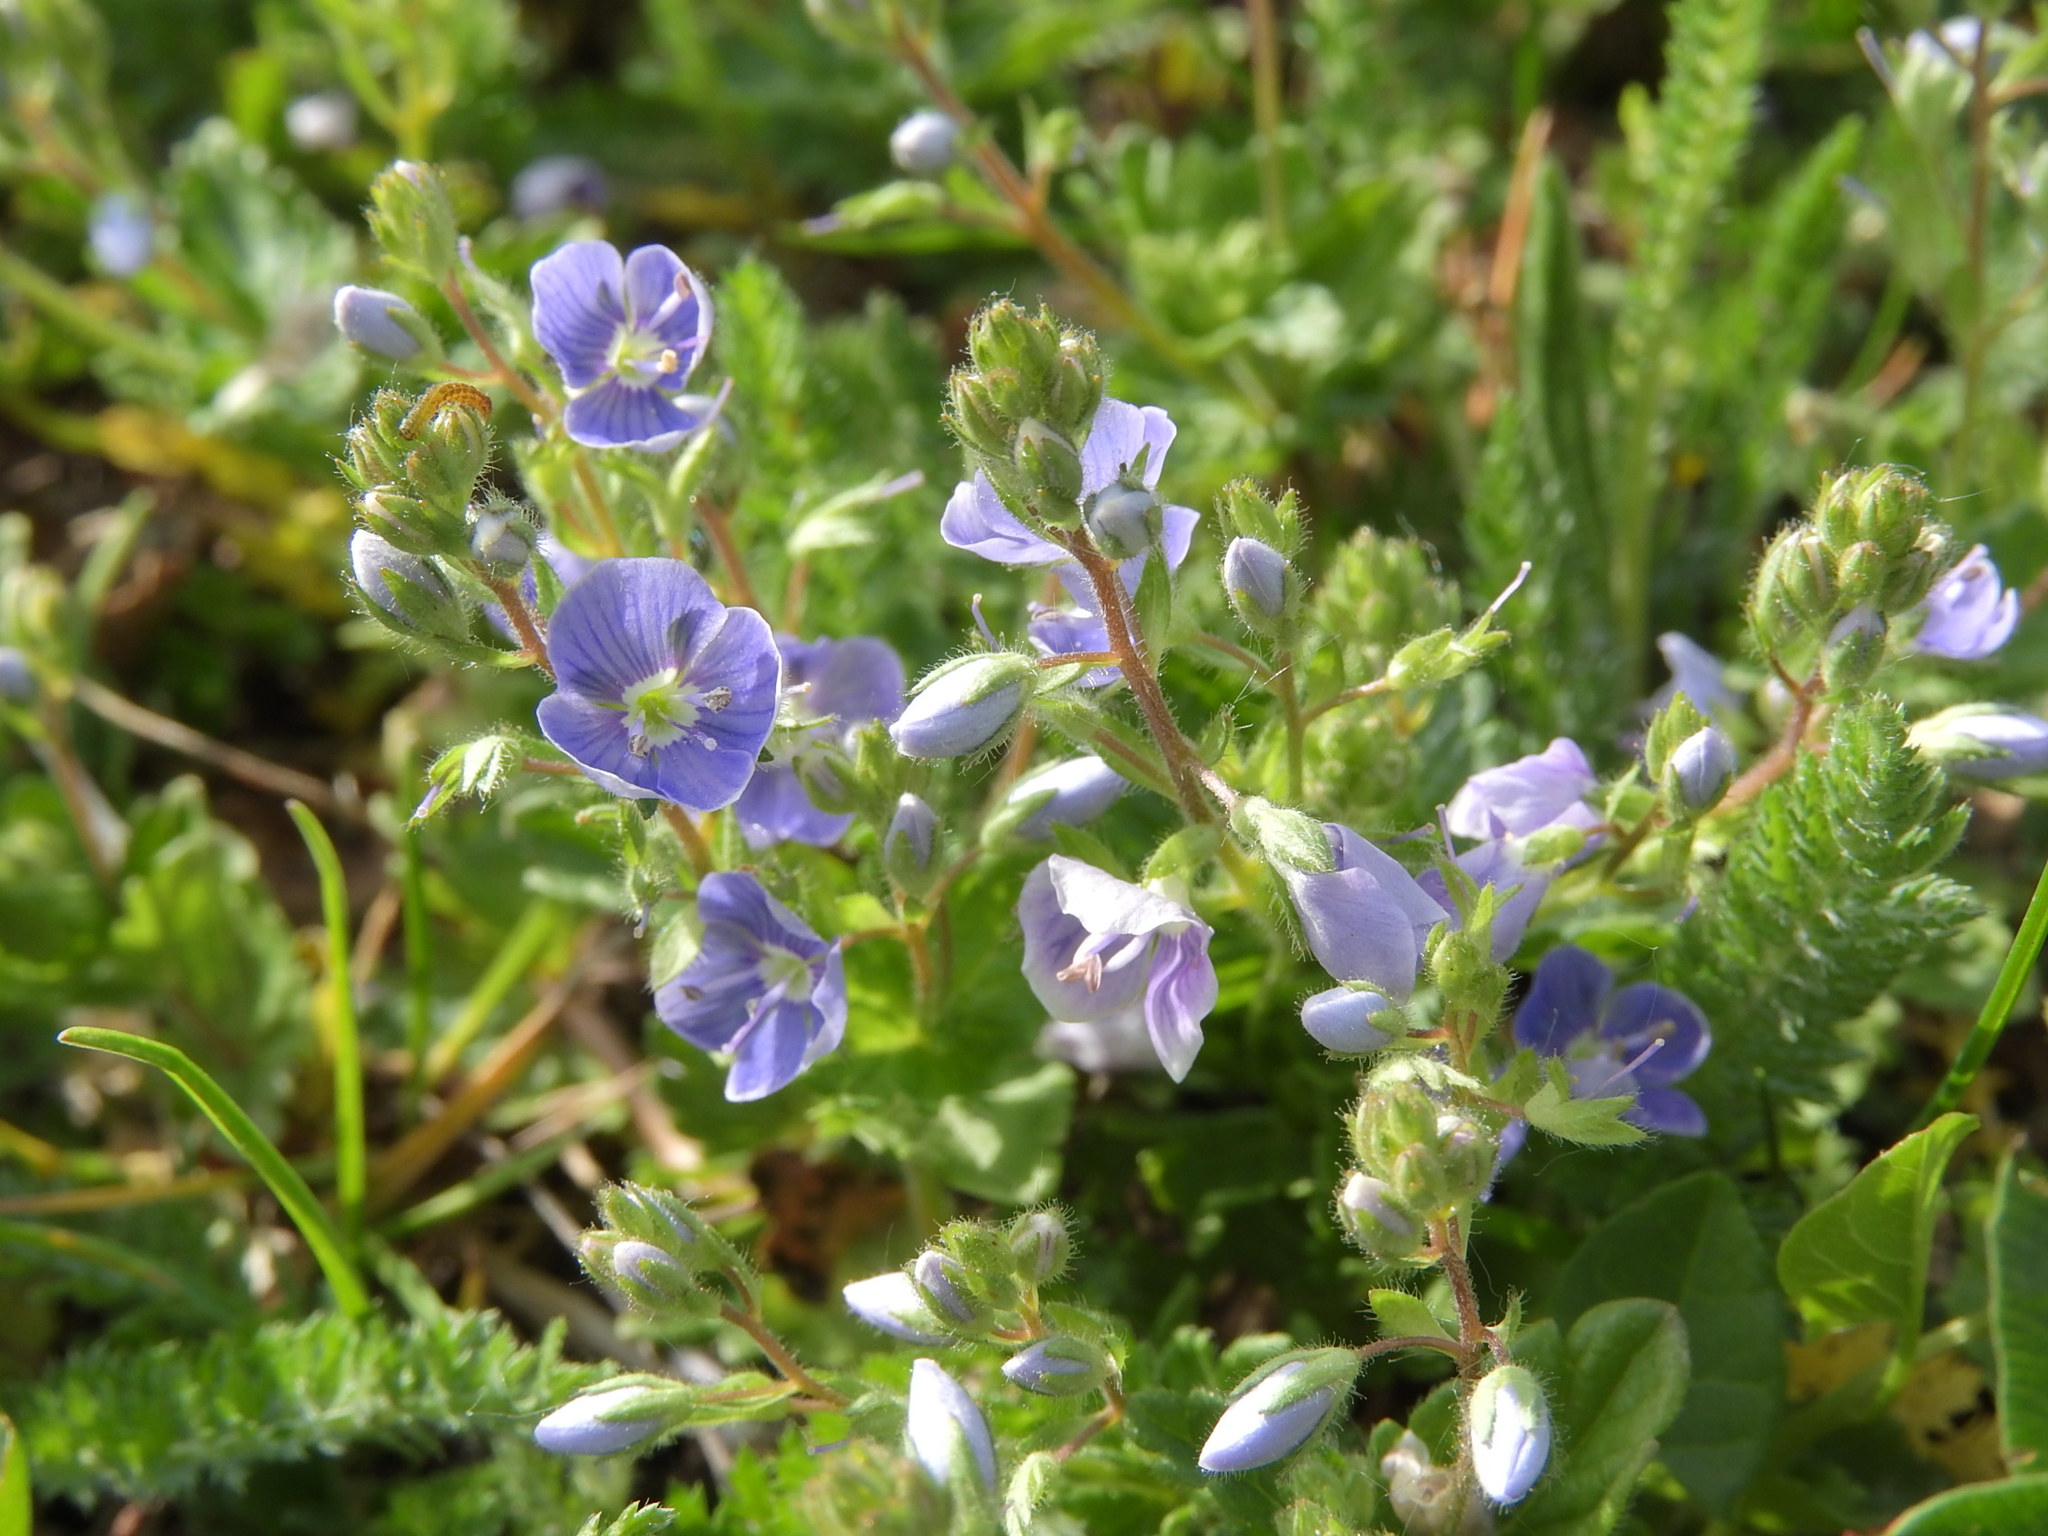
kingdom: Plantae
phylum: Tracheophyta
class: Magnoliopsida
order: Lamiales
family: Plantaginaceae
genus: Veronica
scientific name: Veronica chamaedrys
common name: Germander speedwell
